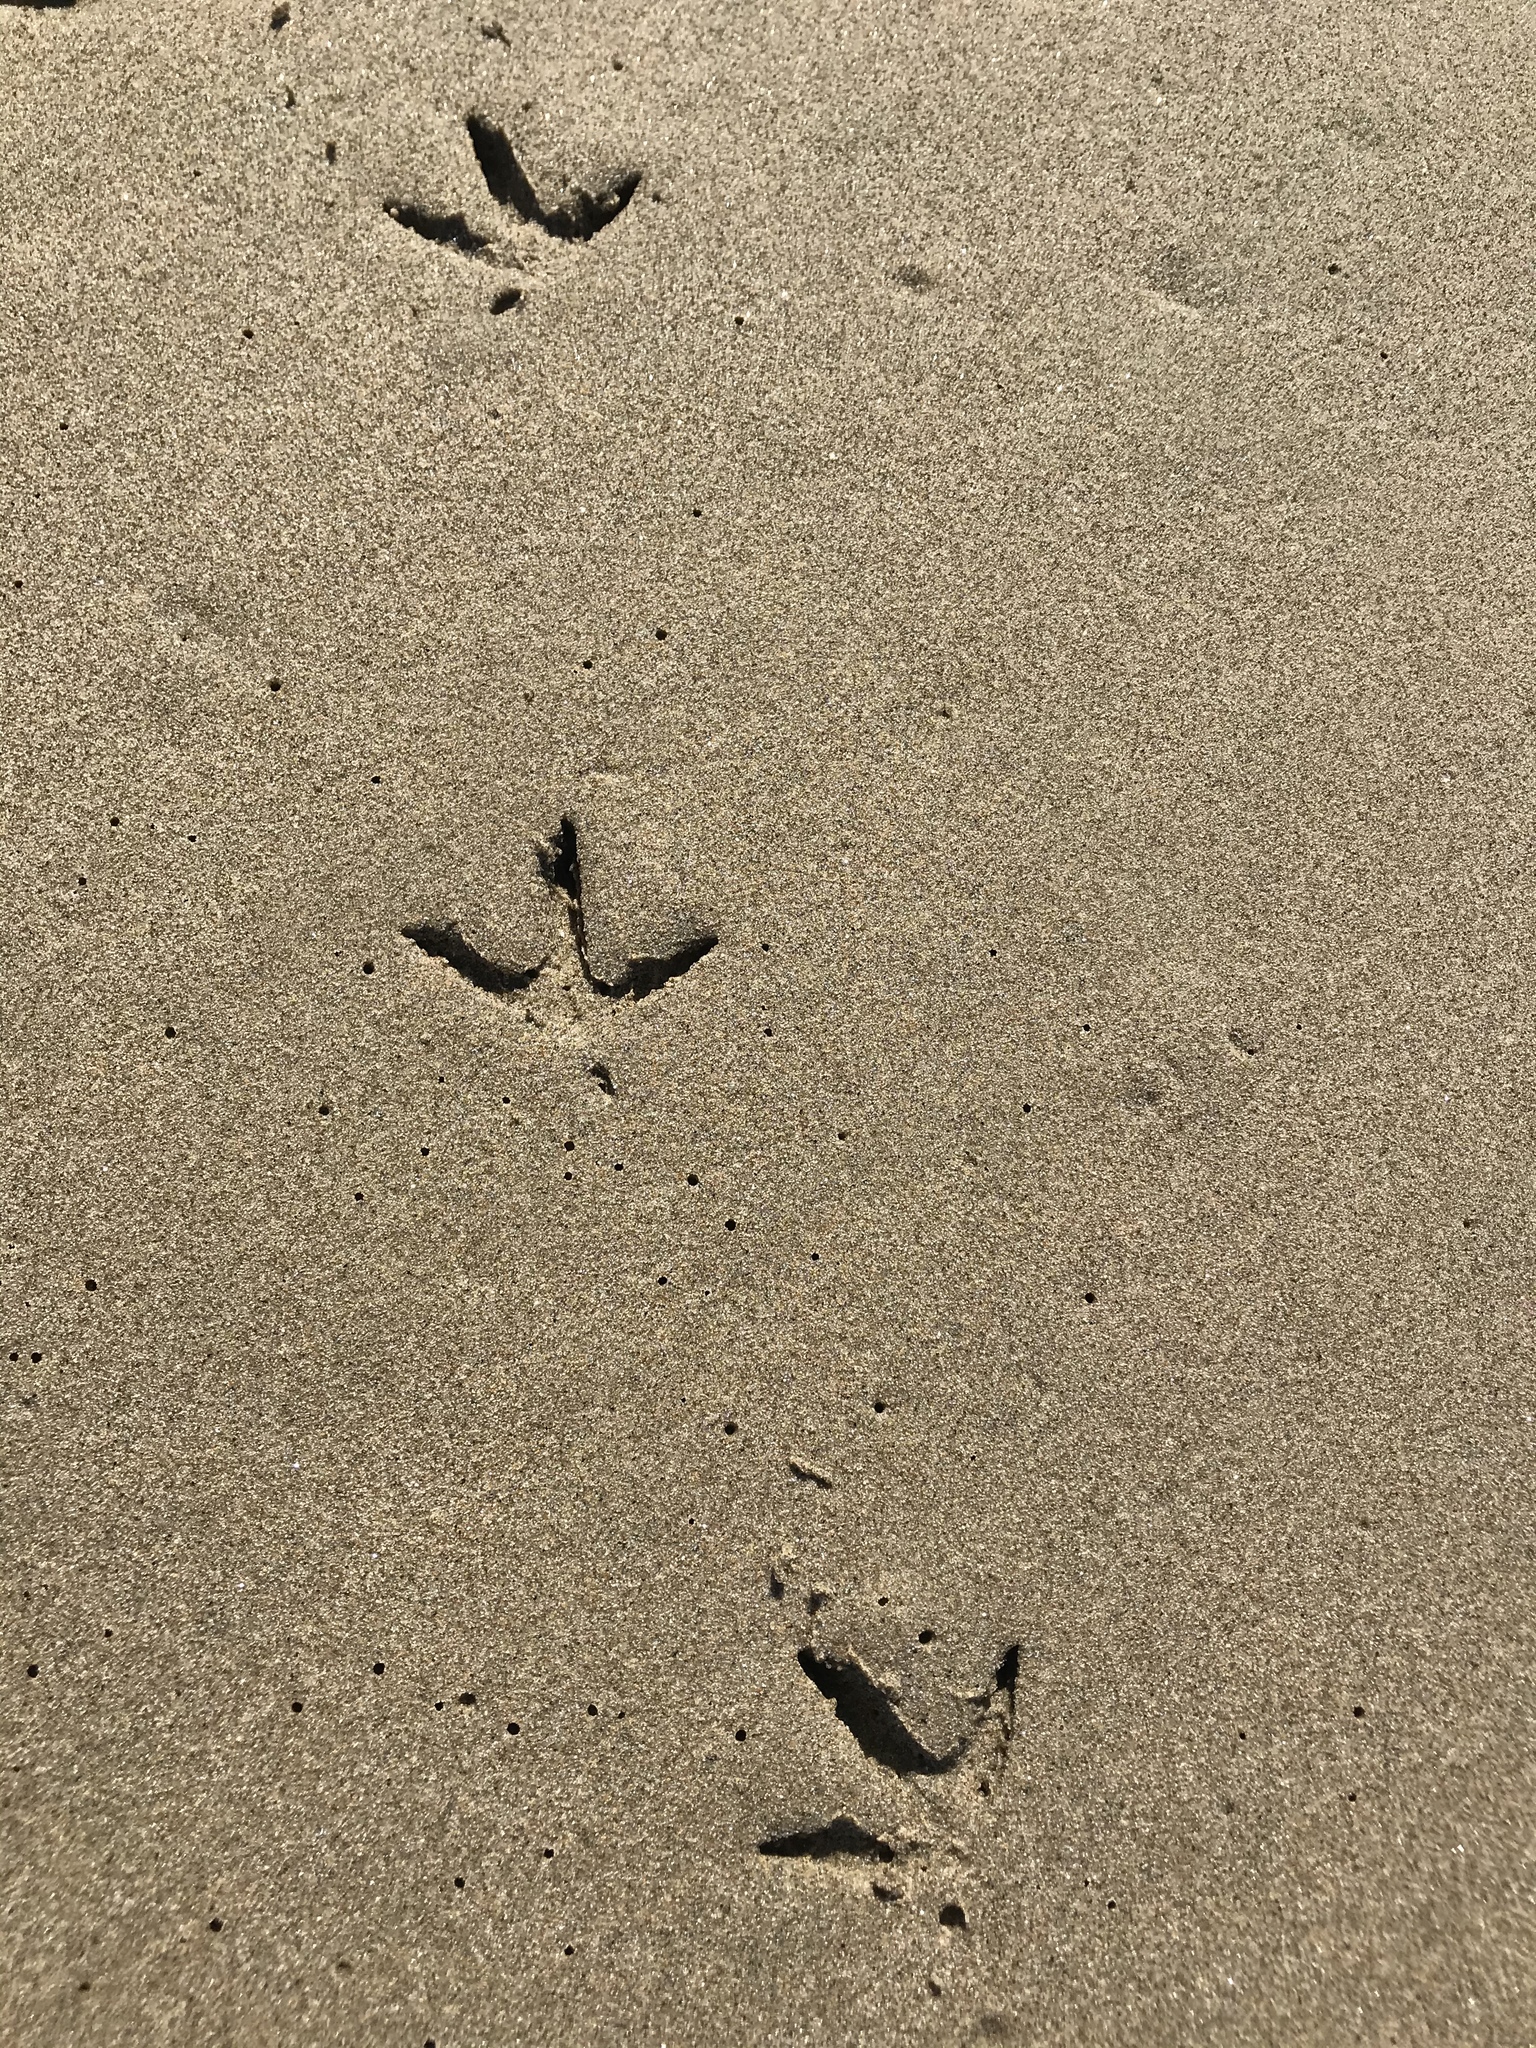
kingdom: Animalia
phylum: Chordata
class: Aves
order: Charadriiformes
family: Scolopacidae
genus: Numenius
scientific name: Numenius americanus
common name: Long-billed curlew
